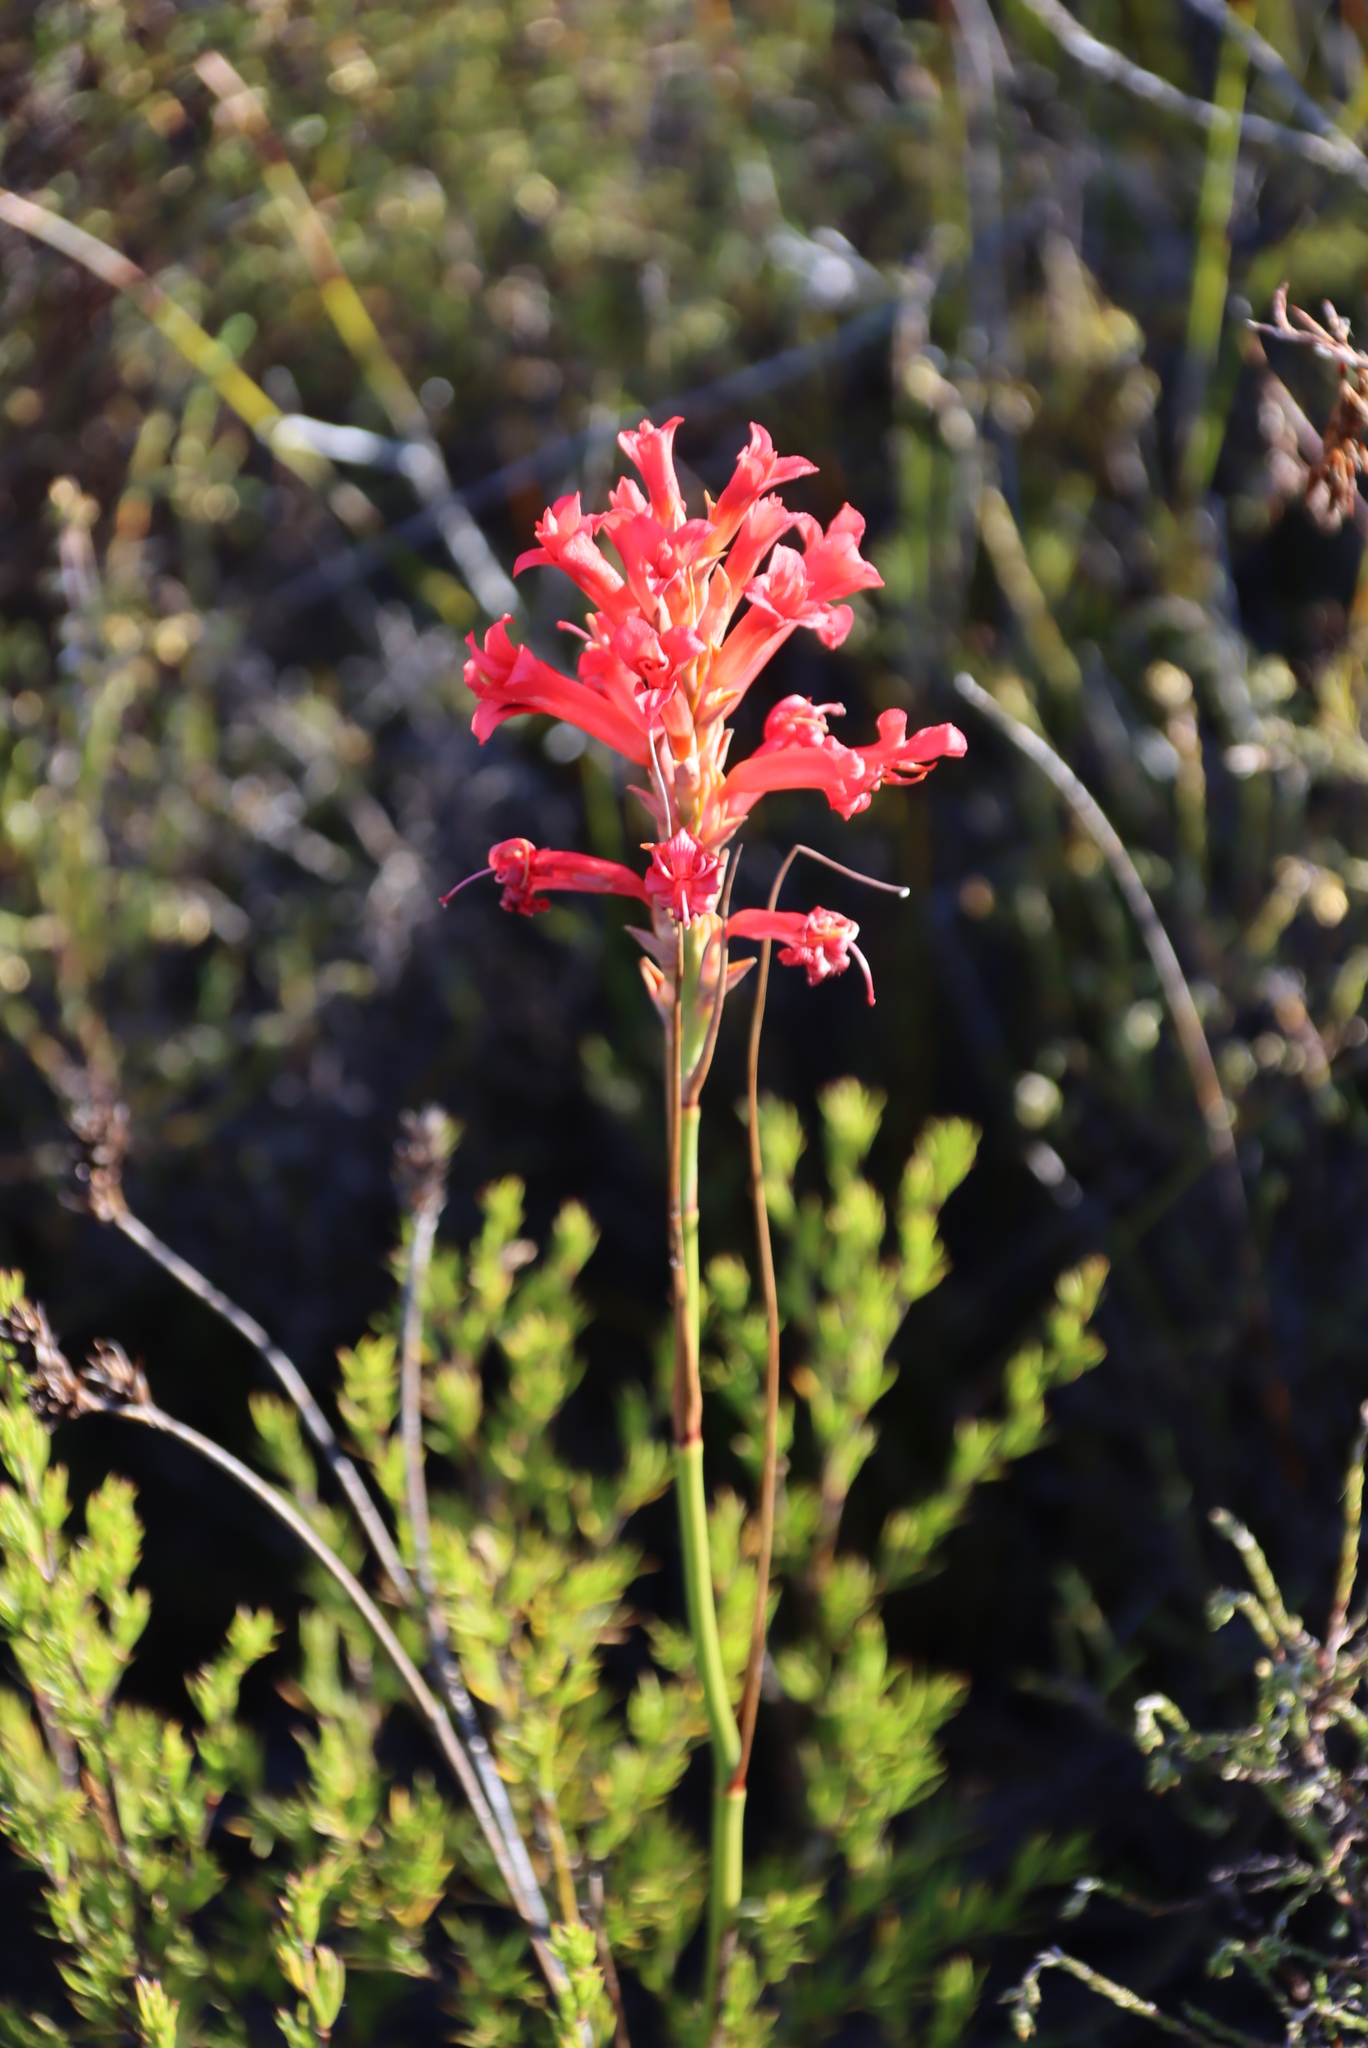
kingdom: Plantae
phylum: Tracheophyta
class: Liliopsida
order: Asparagales
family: Iridaceae
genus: Tritoniopsis
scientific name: Tritoniopsis triticea
